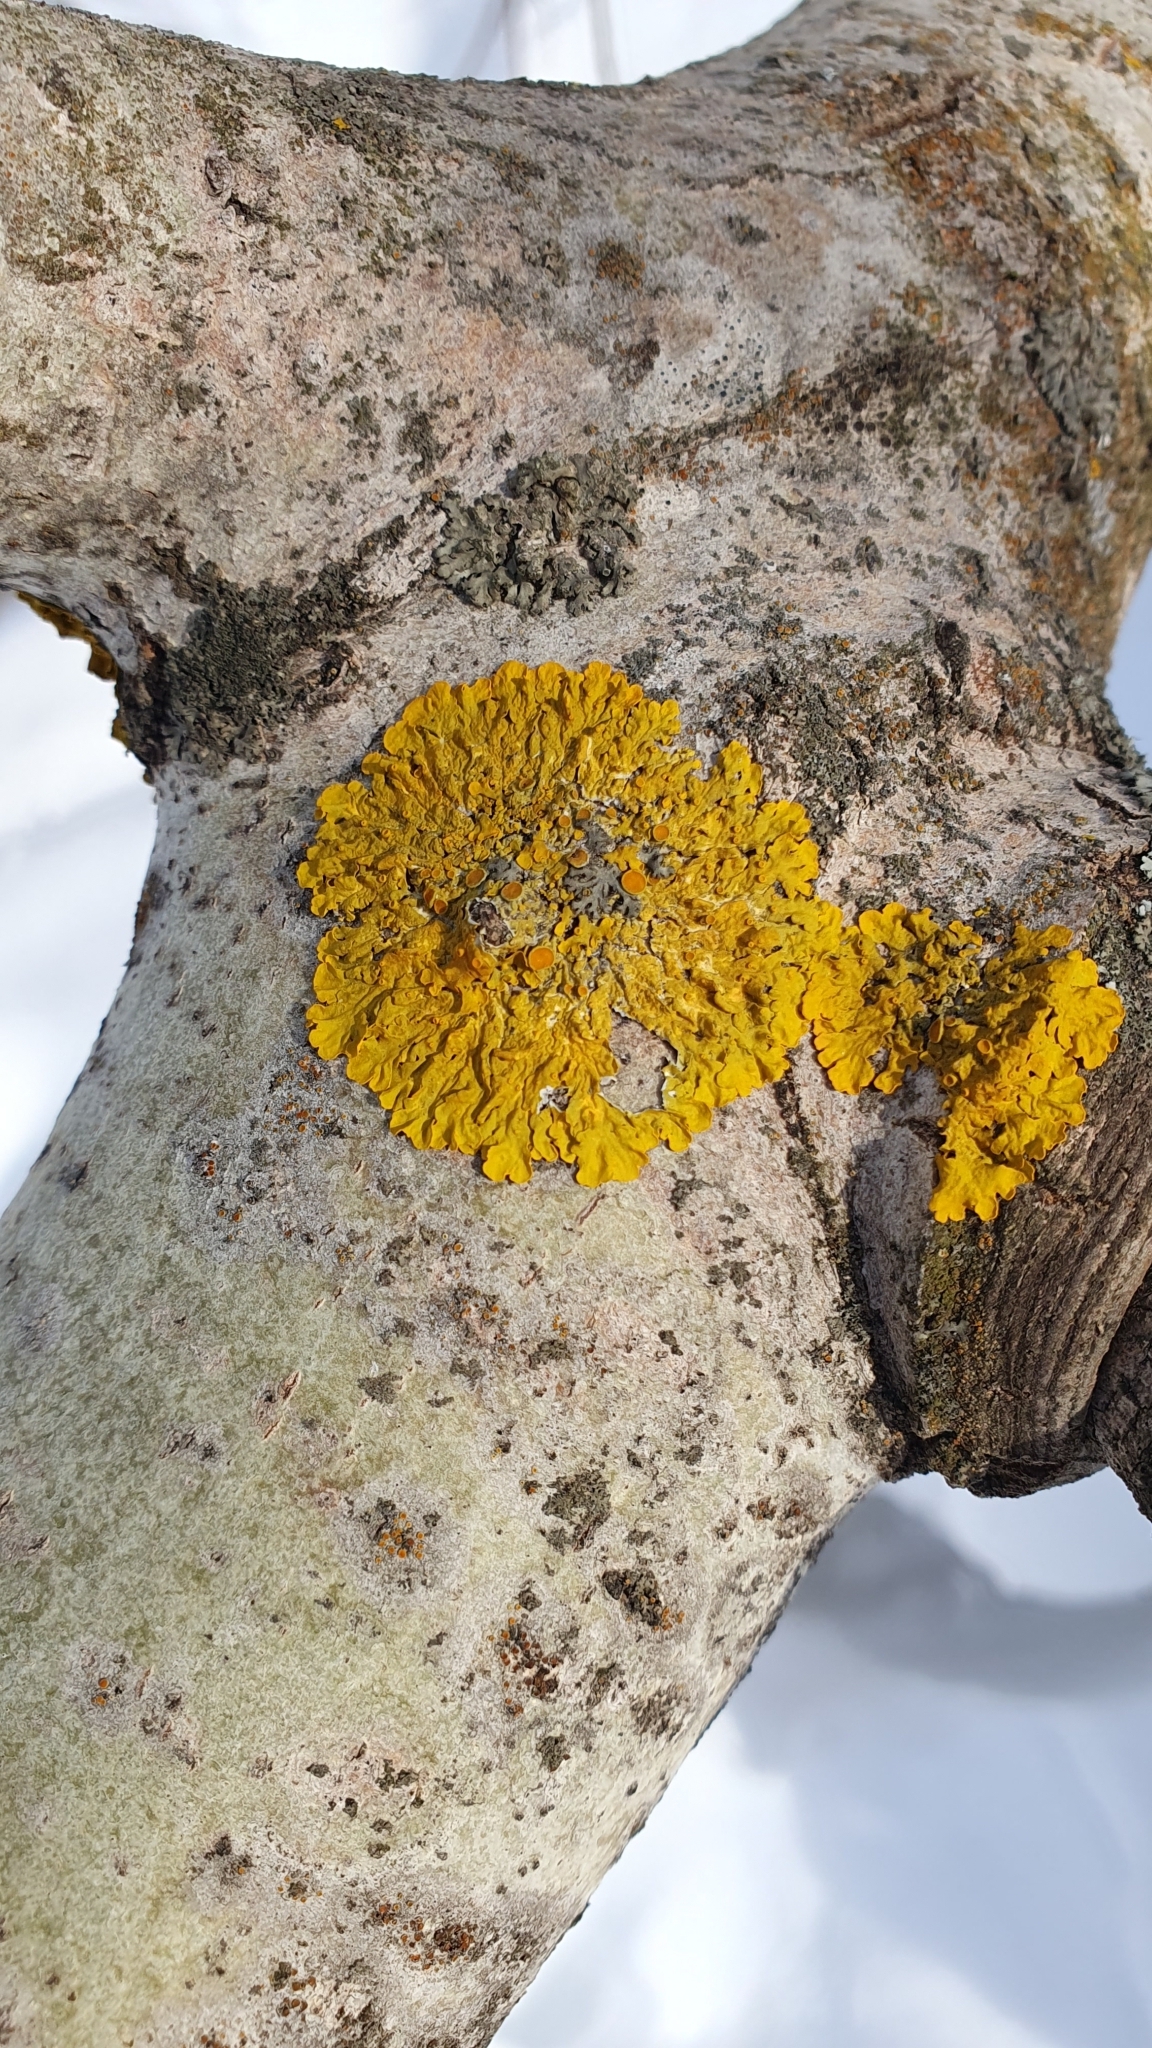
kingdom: Fungi
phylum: Ascomycota
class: Lecanoromycetes
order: Teloschistales
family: Teloschistaceae
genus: Xanthoria
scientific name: Xanthoria parietina
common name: Common orange lichen
